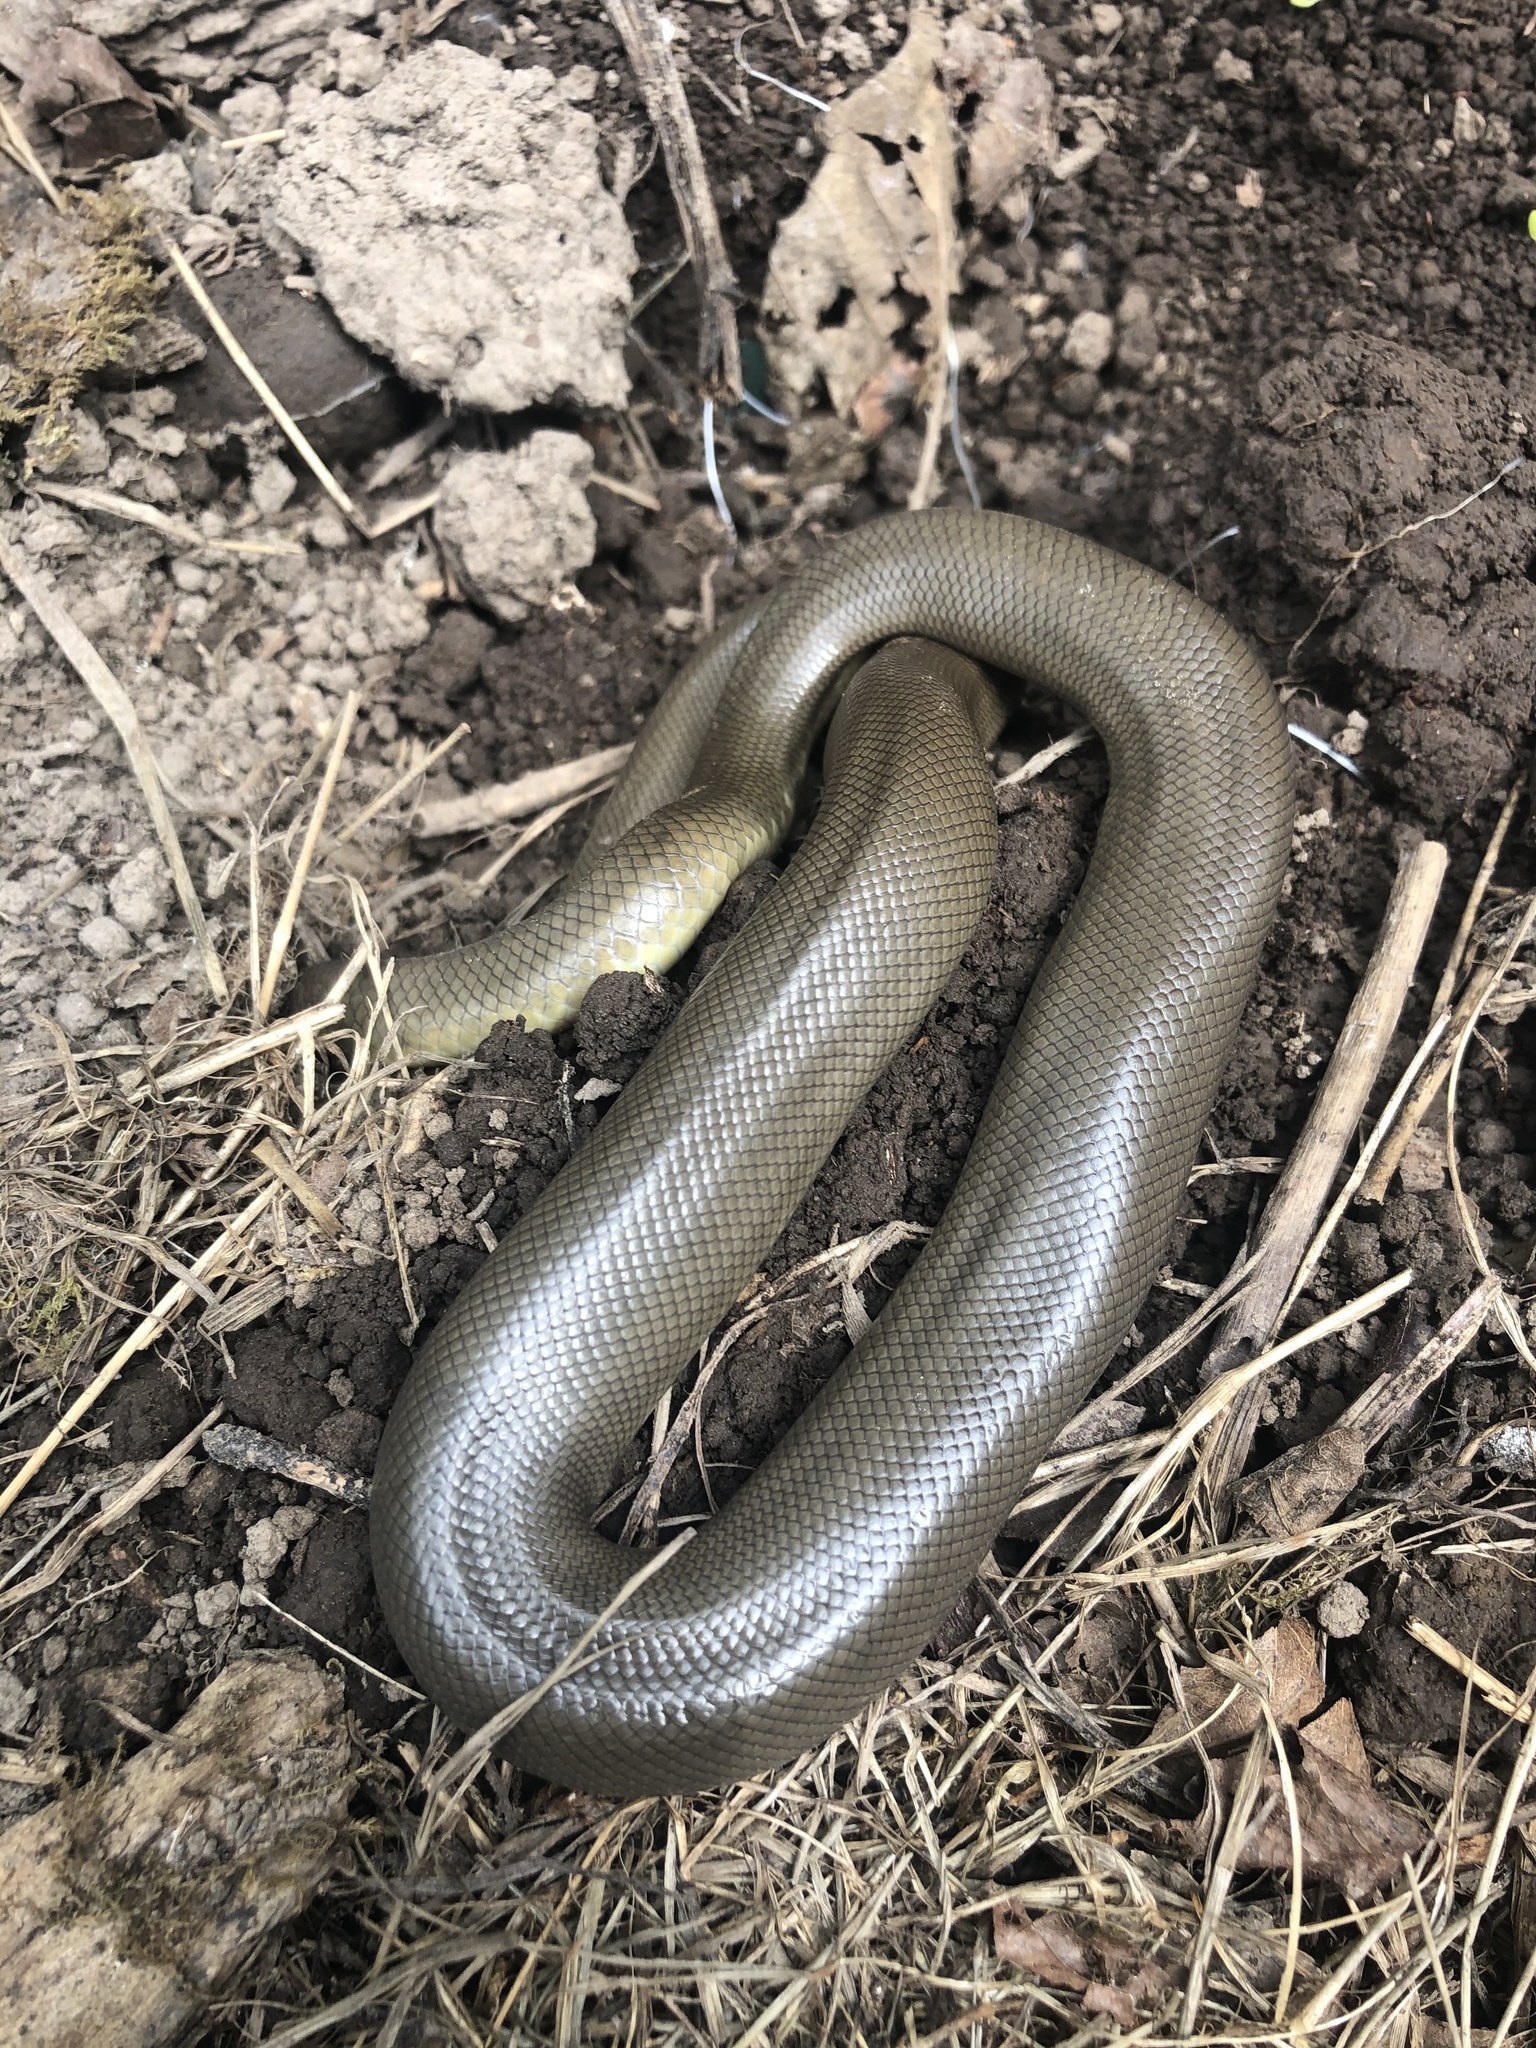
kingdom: Animalia
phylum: Chordata
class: Squamata
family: Boidae
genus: Charina
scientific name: Charina bottae
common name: Northern rubber boa
